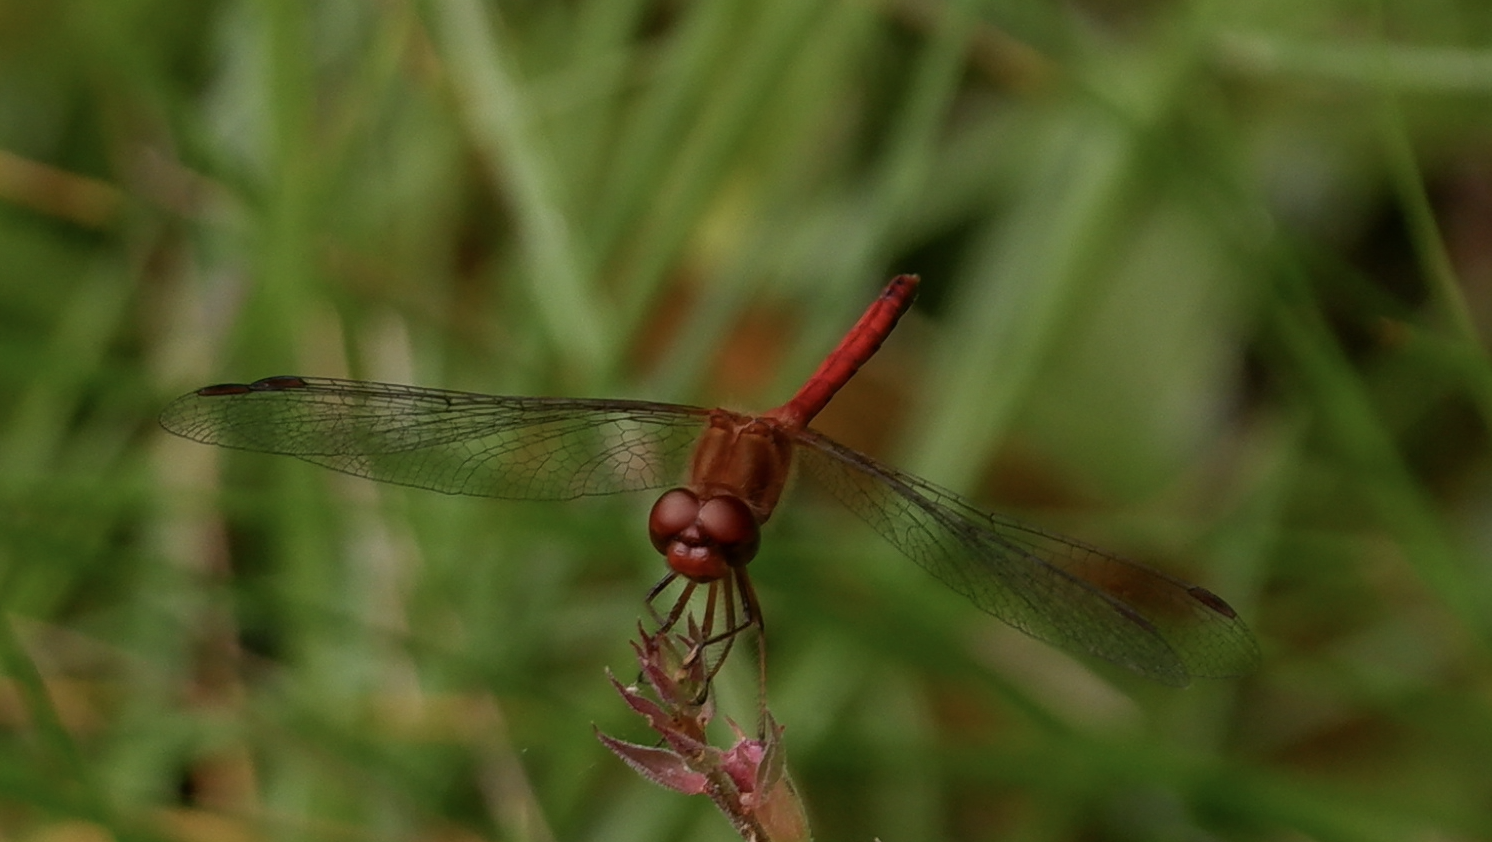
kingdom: Animalia
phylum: Arthropoda
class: Insecta
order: Odonata
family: Libellulidae
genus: Sympetrum
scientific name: Sympetrum vicinum
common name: Autumn meadowhawk
